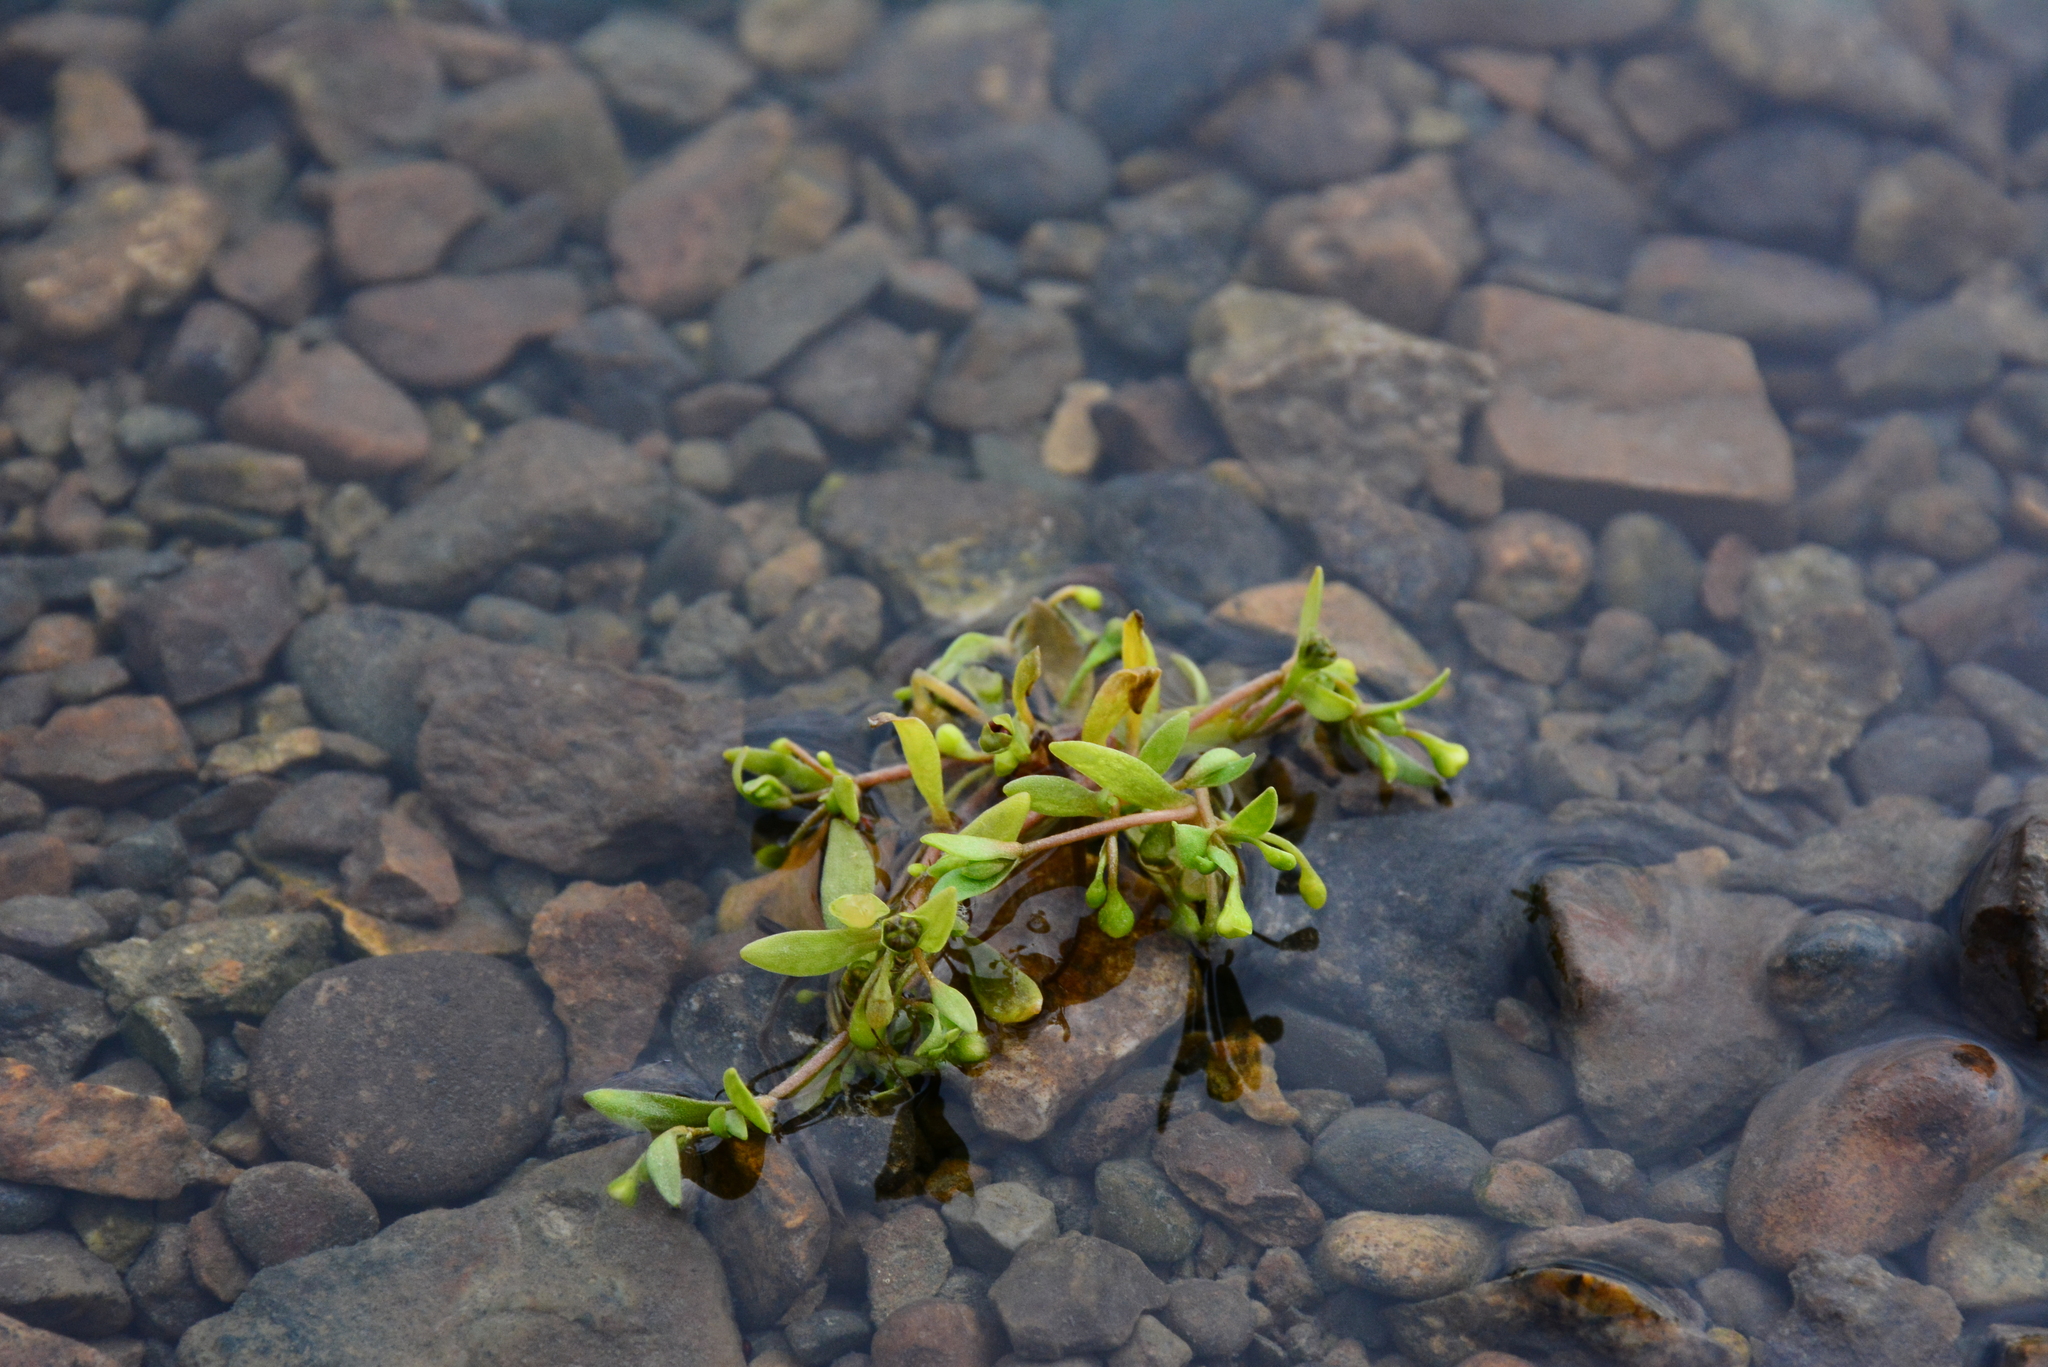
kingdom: Plantae
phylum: Tracheophyta
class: Magnoliopsida
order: Caryophyllales
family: Montiaceae
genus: Montia
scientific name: Montia fontana
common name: Blinks
